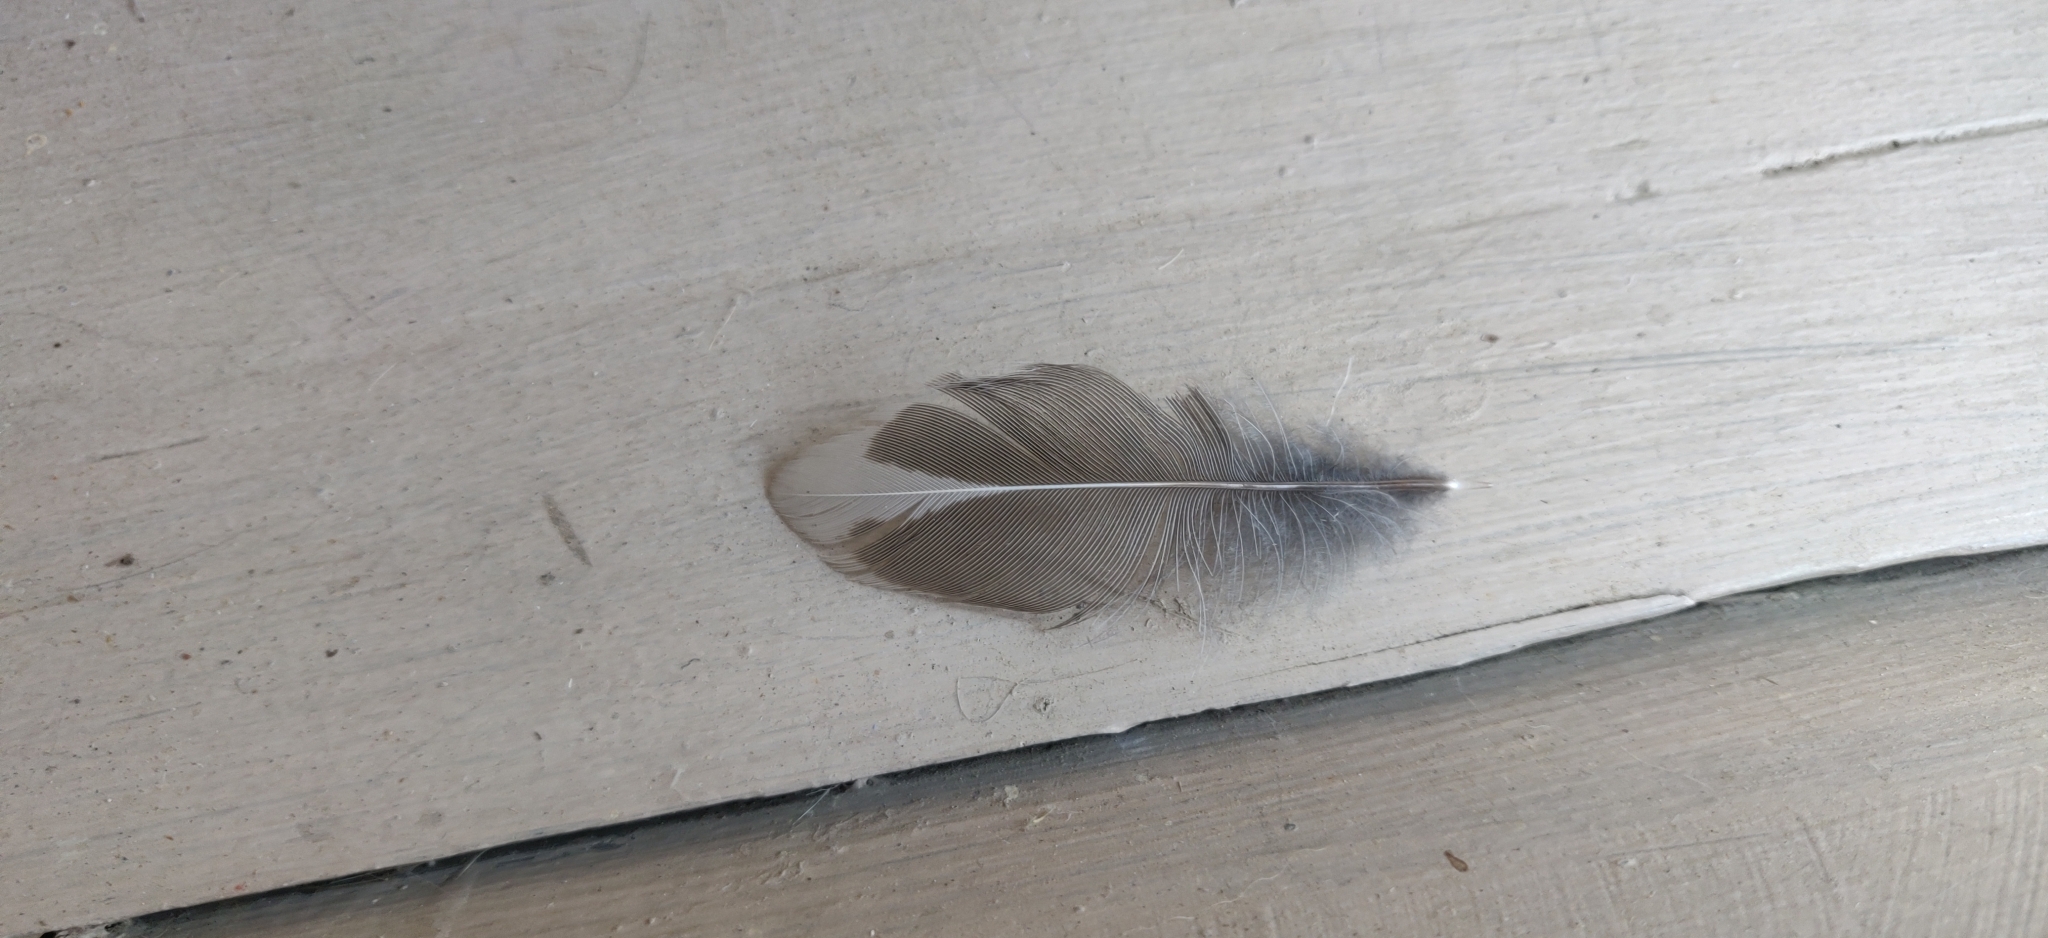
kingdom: Animalia
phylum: Chordata
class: Aves
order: Passeriformes
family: Turdidae
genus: Turdus
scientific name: Turdus migratorius
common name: American robin
